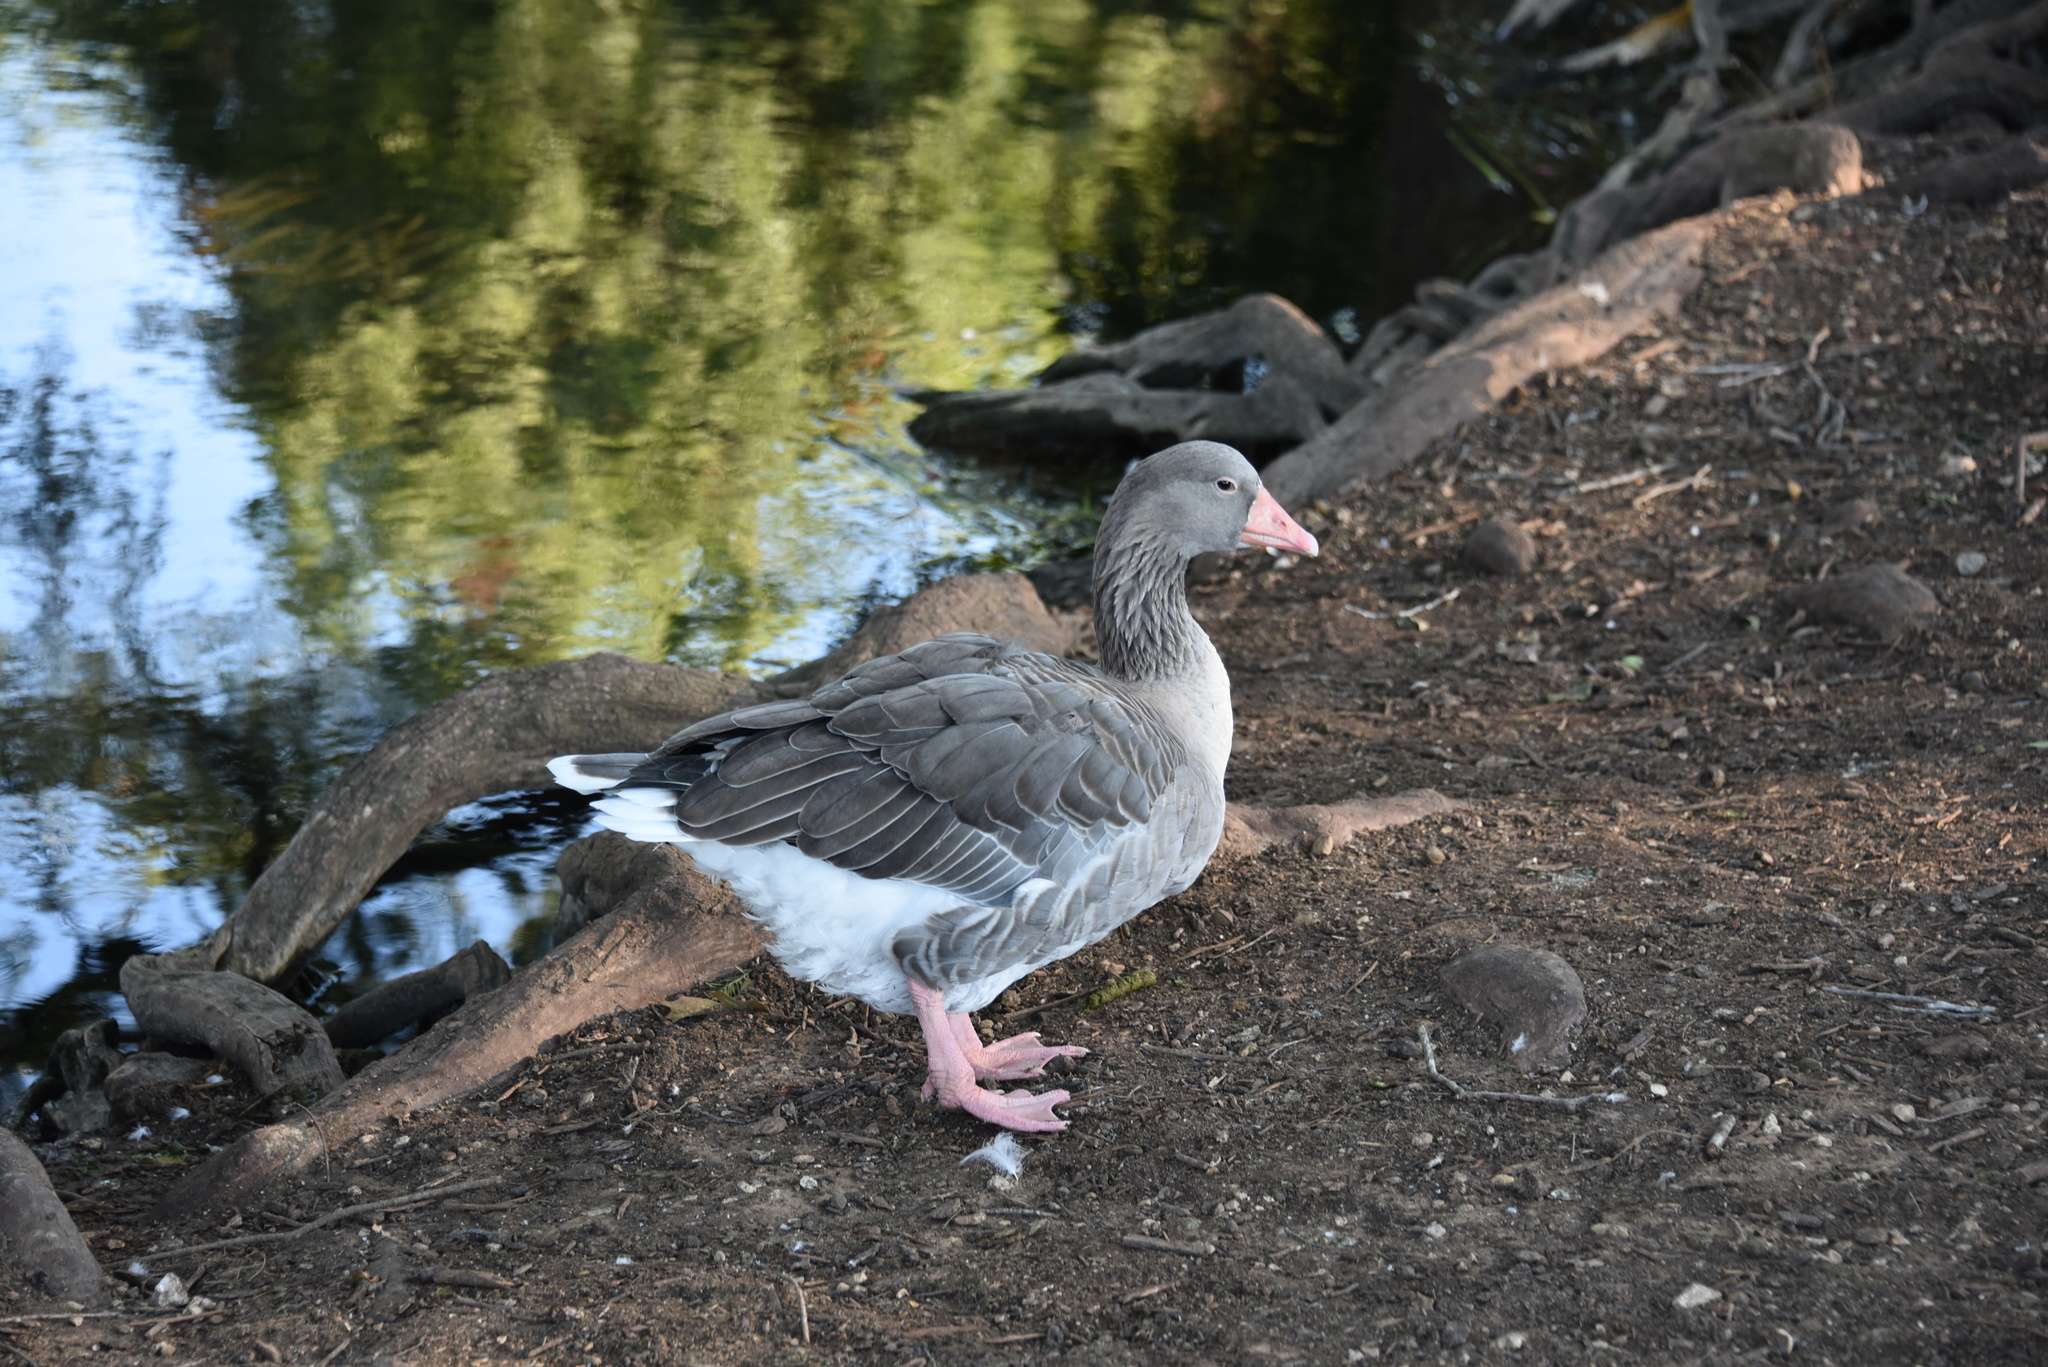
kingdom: Animalia
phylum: Chordata
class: Aves
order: Anseriformes
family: Anatidae
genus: Anser
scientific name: Anser anser
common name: Greylag goose
